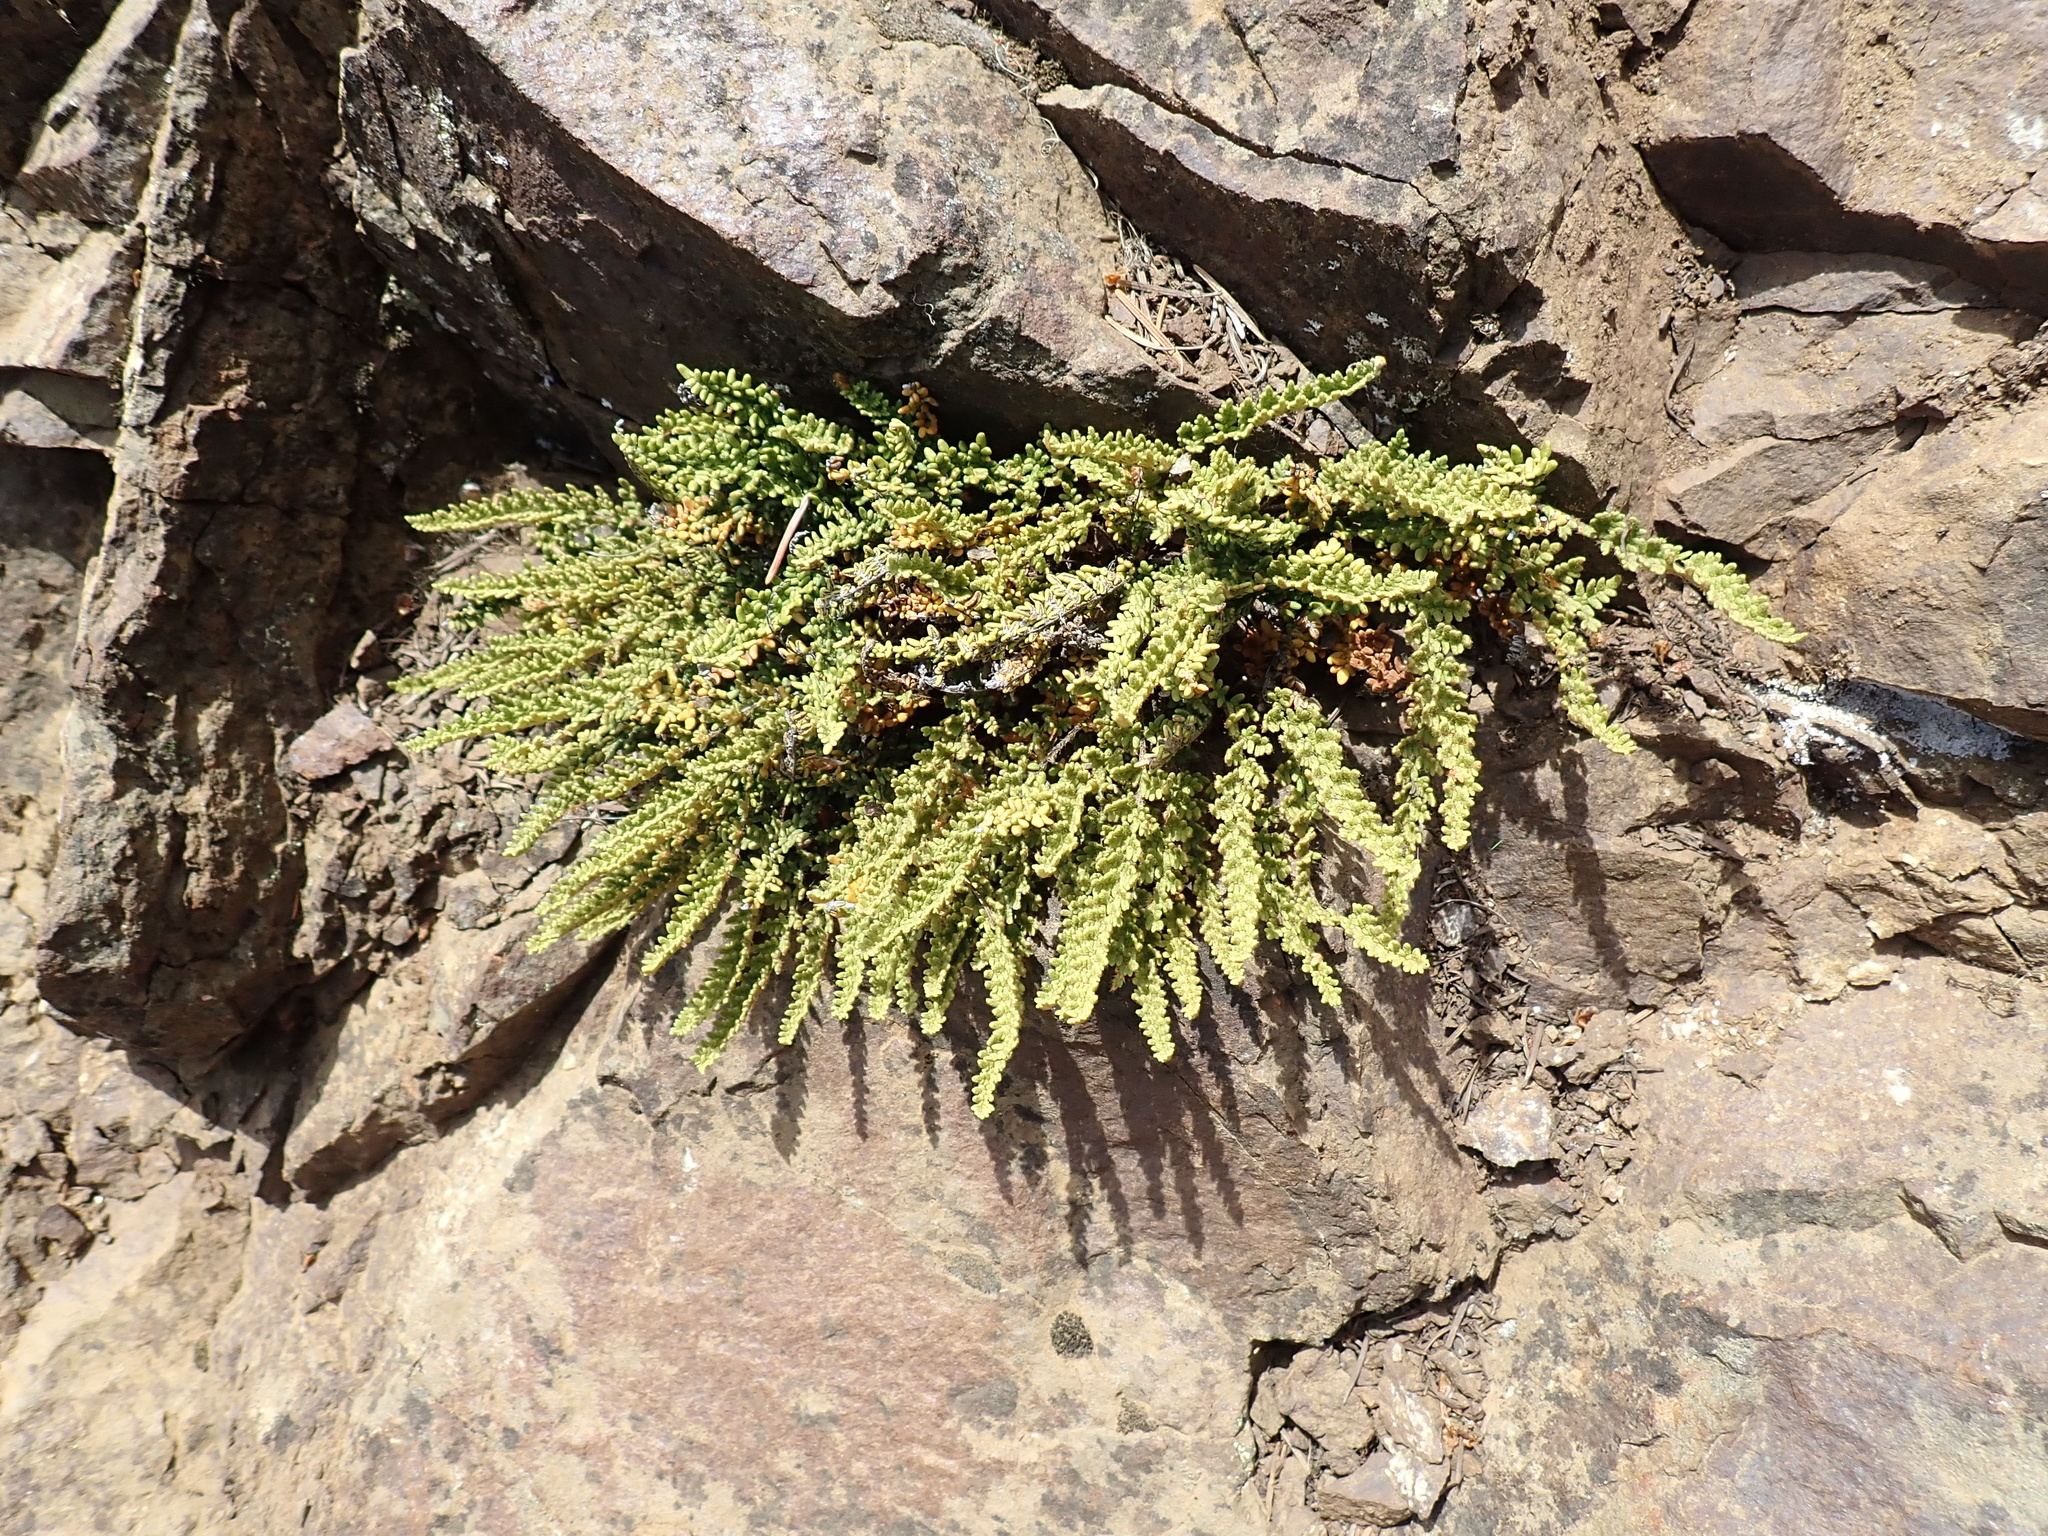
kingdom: Plantae
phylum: Tracheophyta
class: Polypodiopsida
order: Polypodiales
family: Pteridaceae
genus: Myriopteris
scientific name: Myriopteris gracillima
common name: Lace fern
